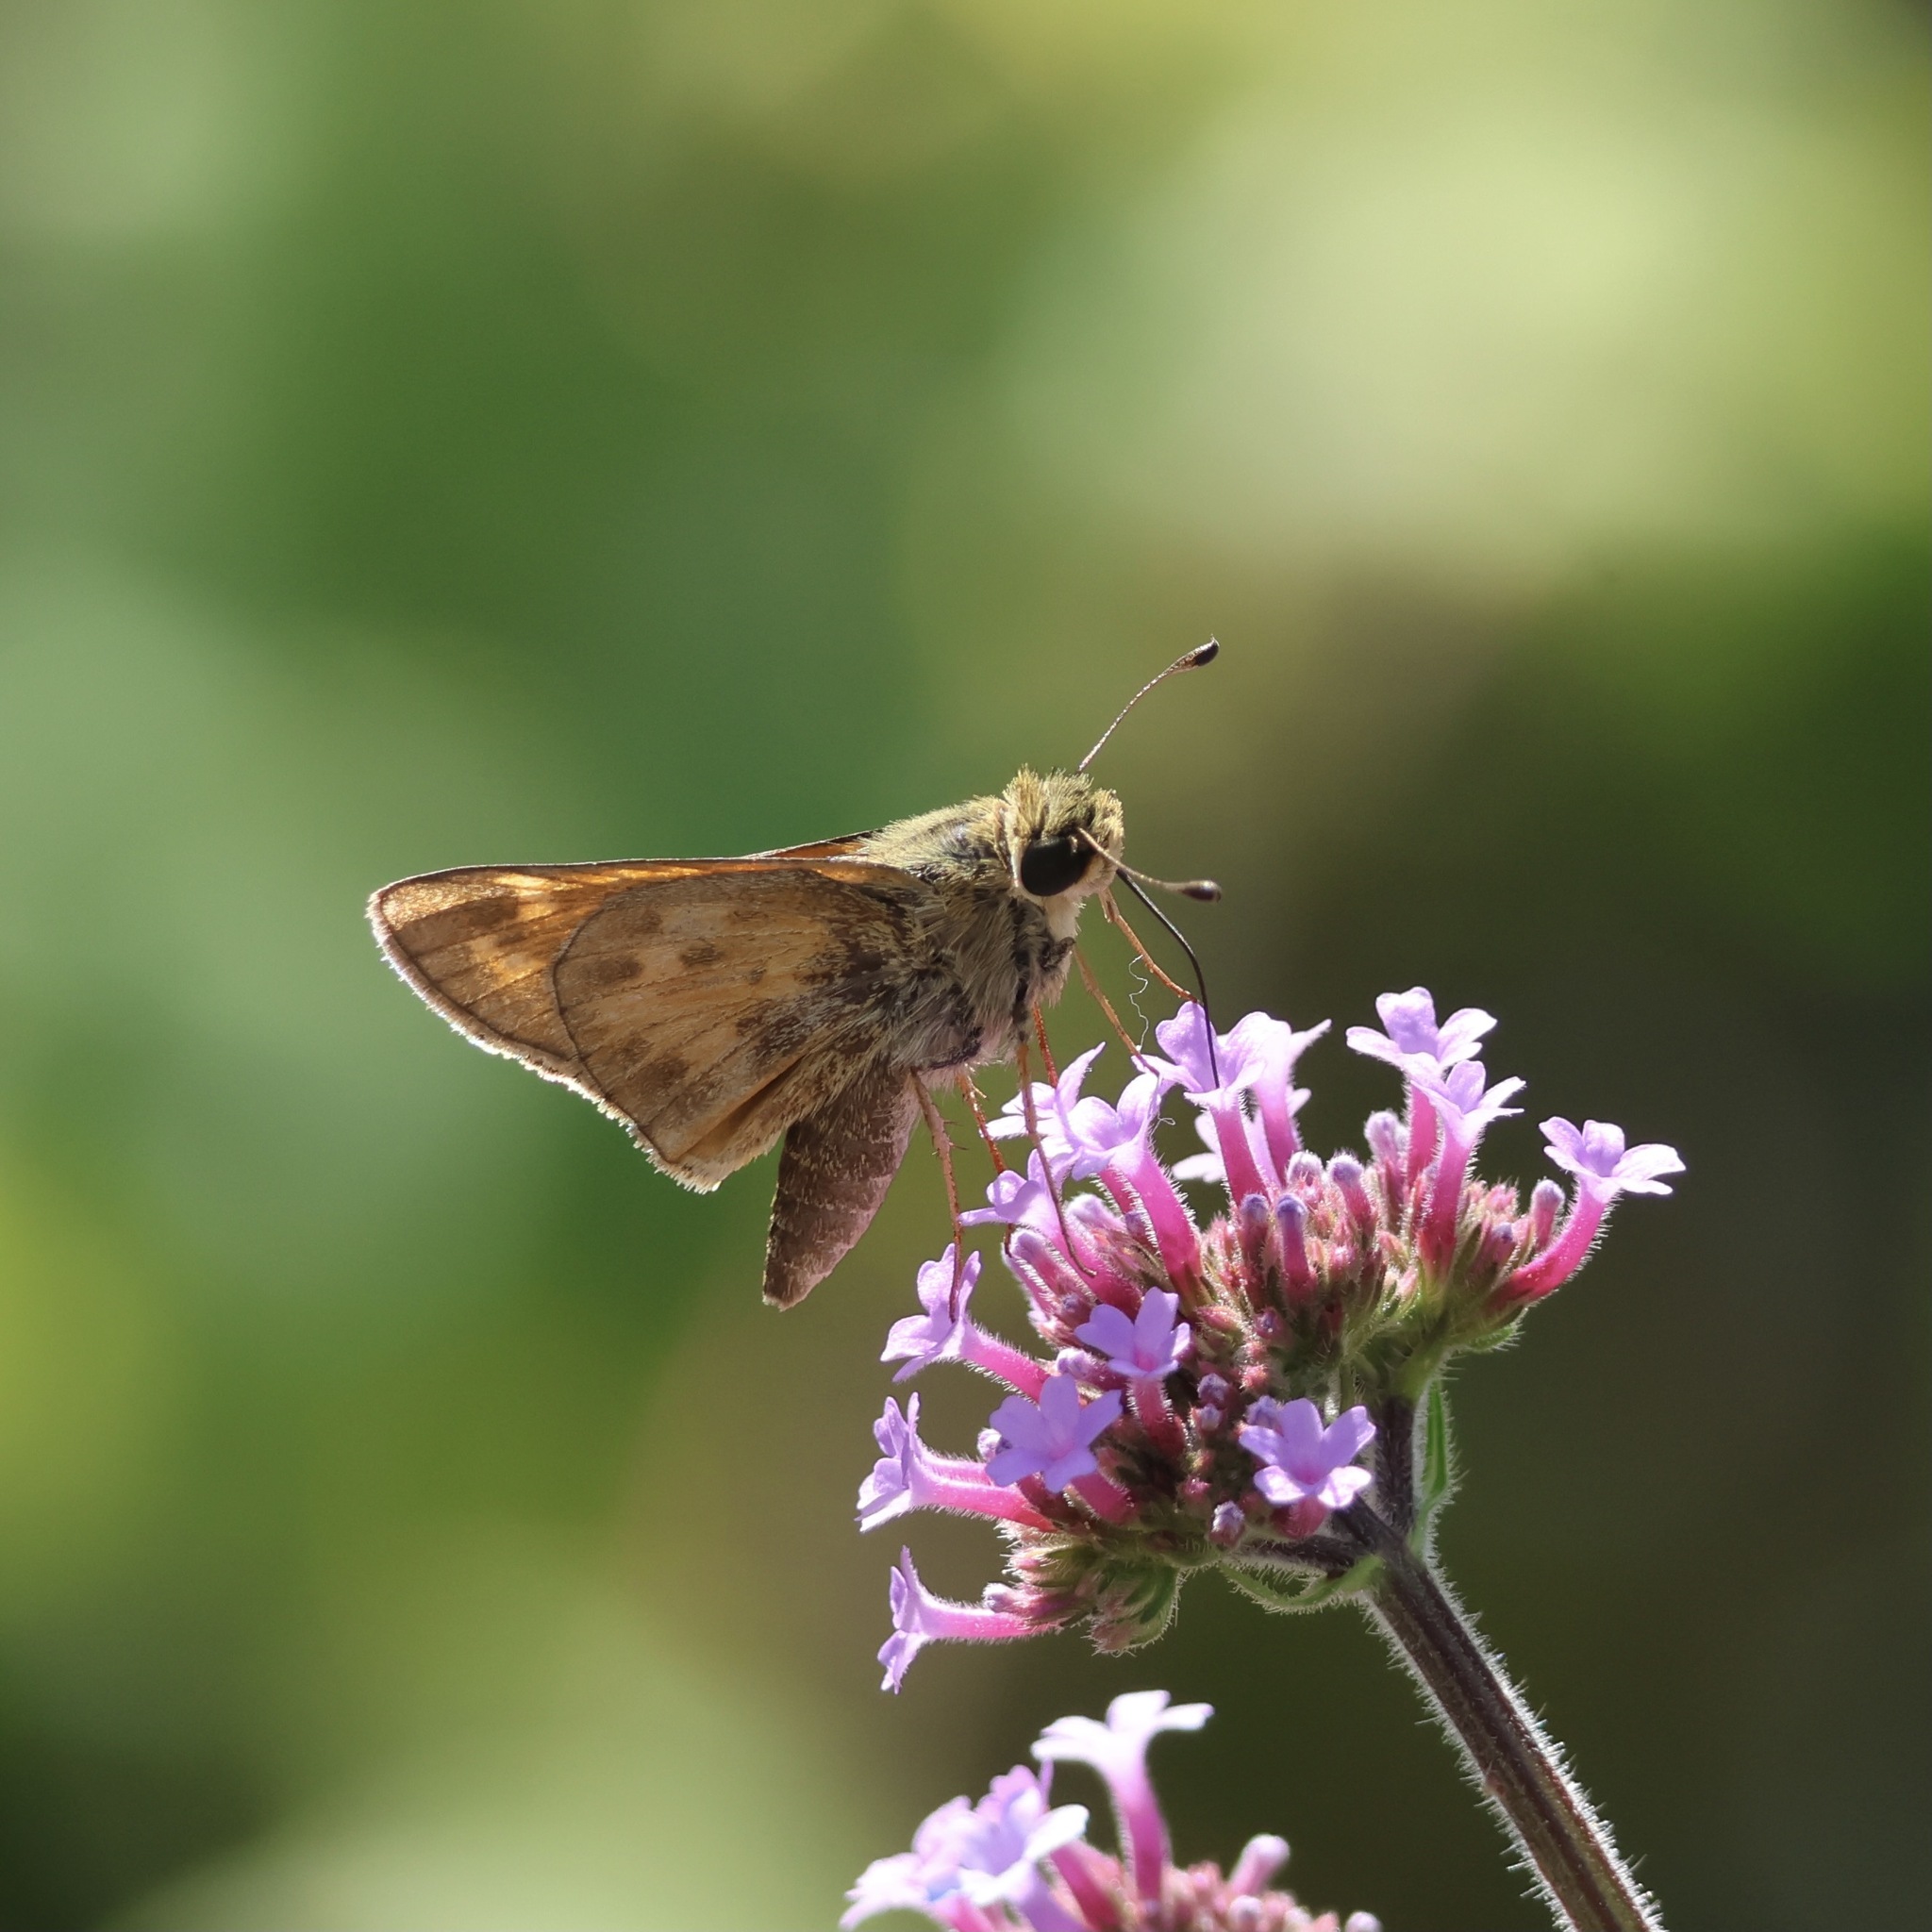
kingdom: Animalia
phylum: Arthropoda
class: Insecta
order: Lepidoptera
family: Hesperiidae
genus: Atalopedes
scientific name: Atalopedes
